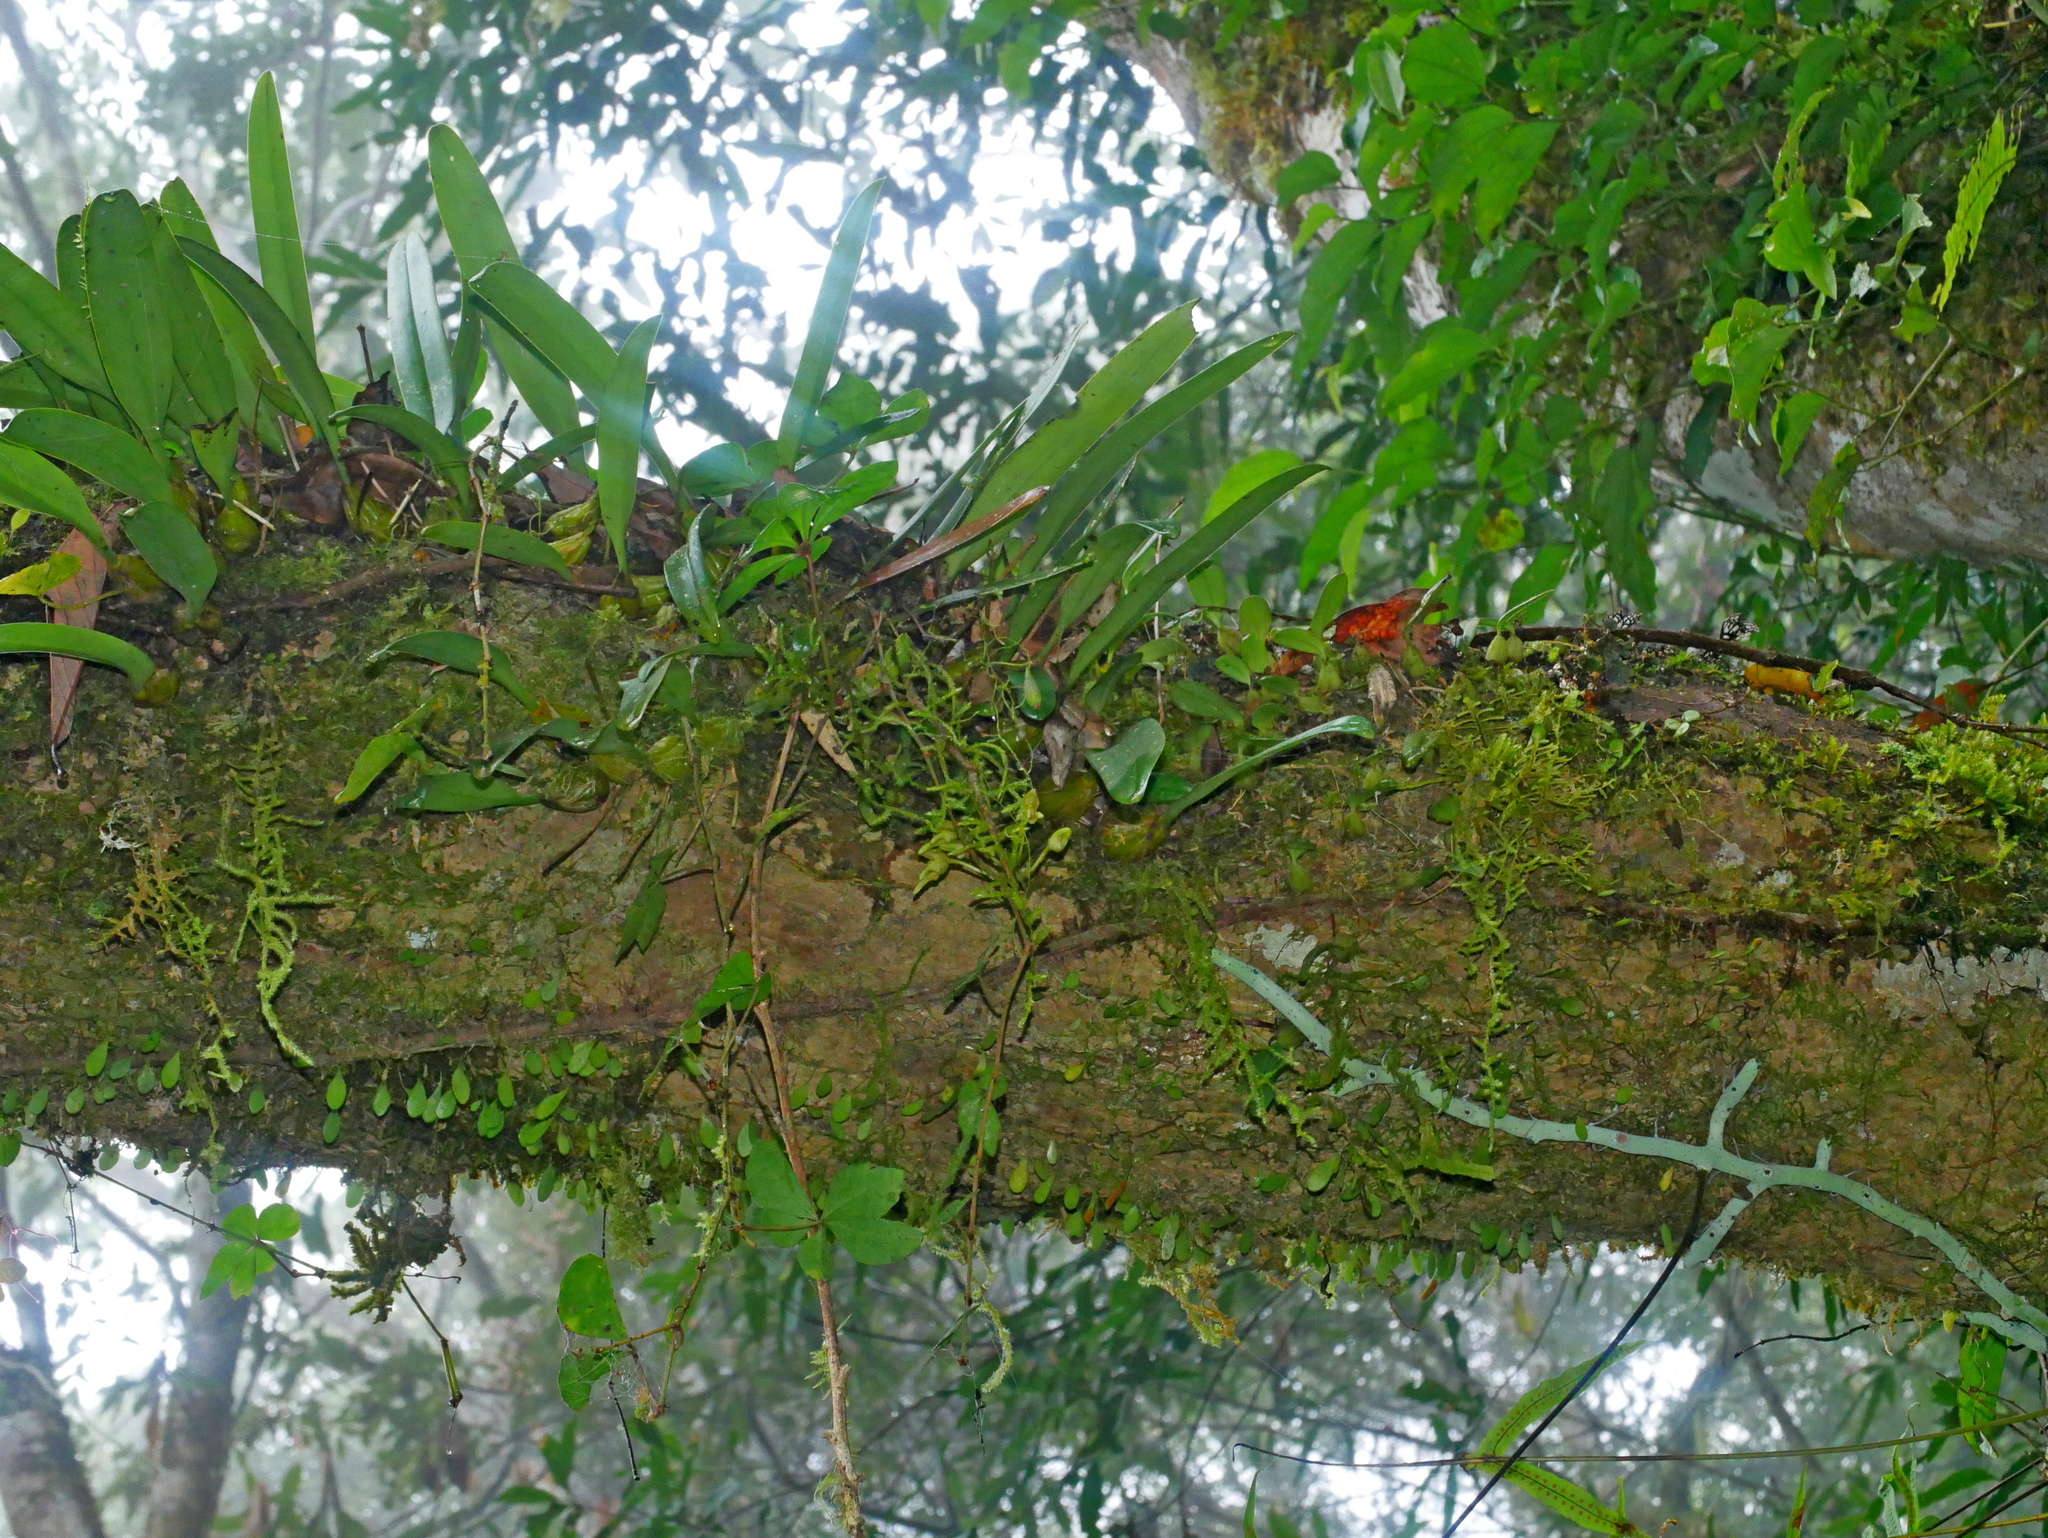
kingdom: Plantae
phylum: Tracheophyta
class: Polypodiopsida
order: Polypodiales
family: Polypodiaceae
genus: Goniophlebium
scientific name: Goniophlebium formosanum
